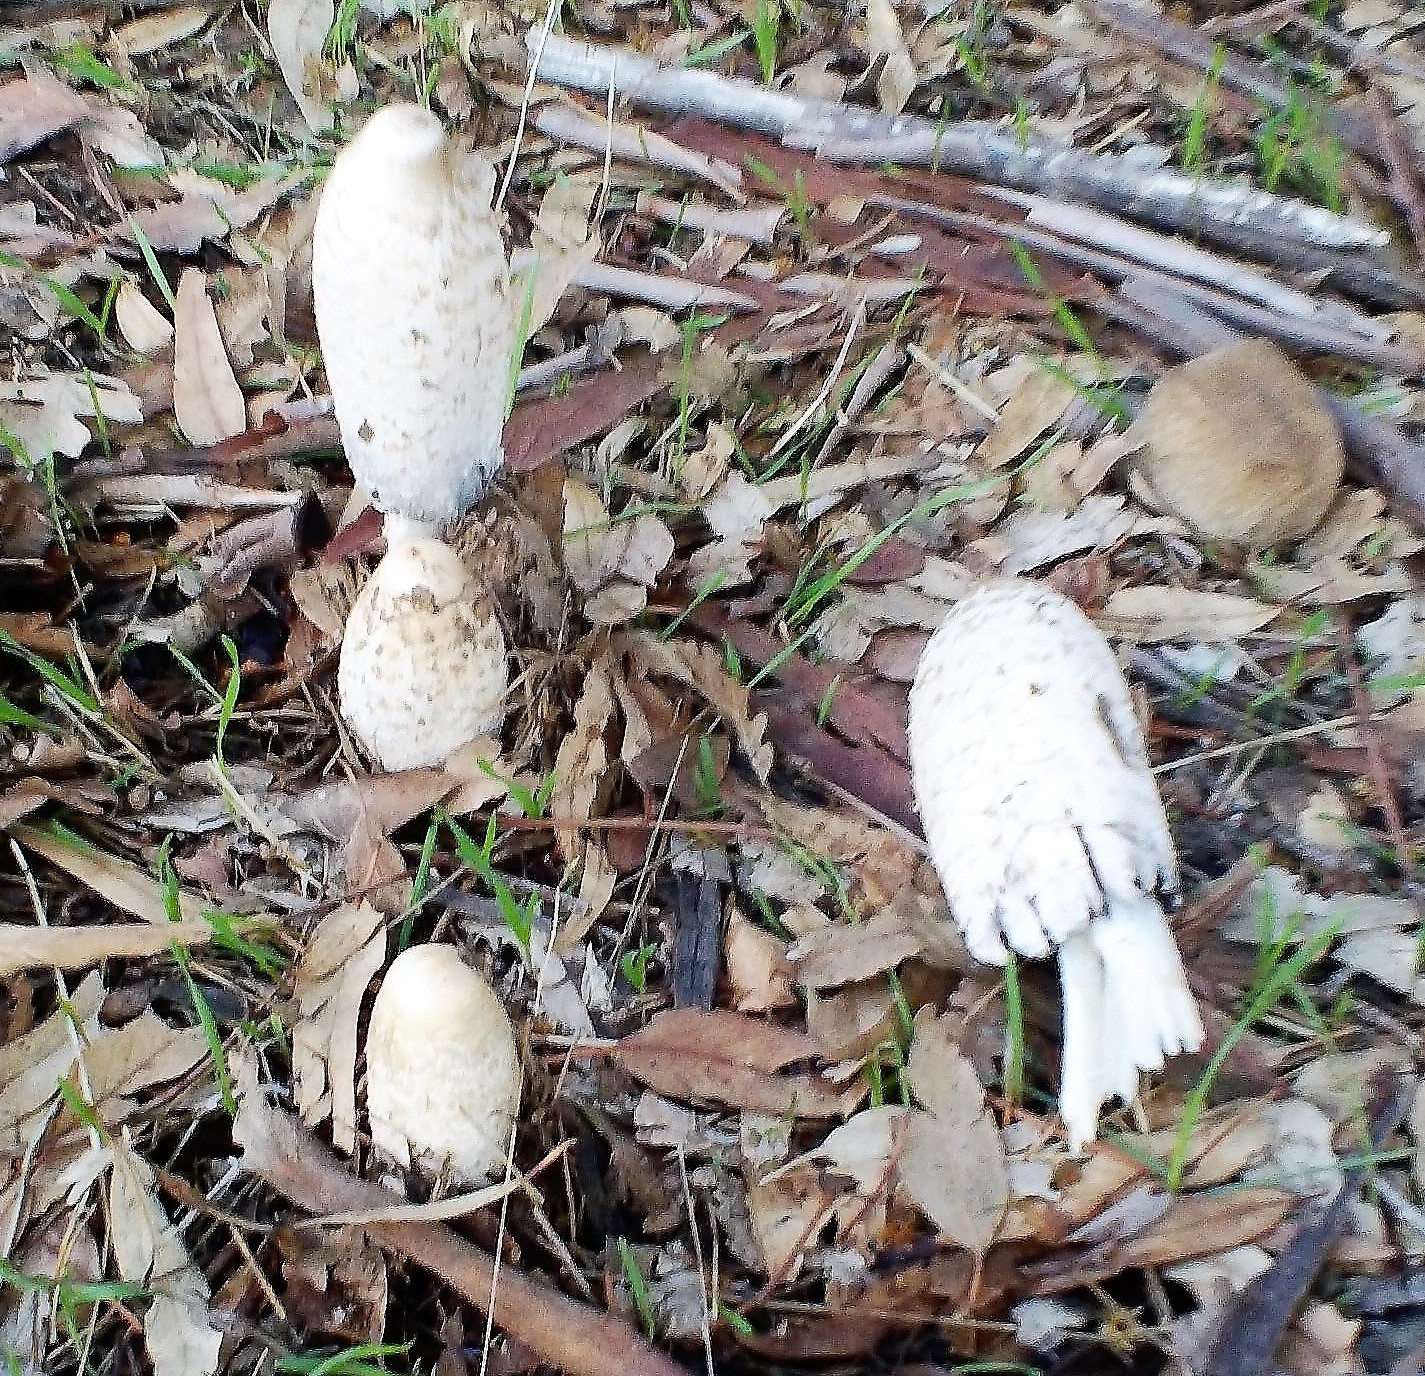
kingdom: Fungi
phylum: Basidiomycota
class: Agaricomycetes
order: Agaricales
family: Agaricaceae
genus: Coprinus
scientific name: Coprinus comatus
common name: Lawyer's wig
